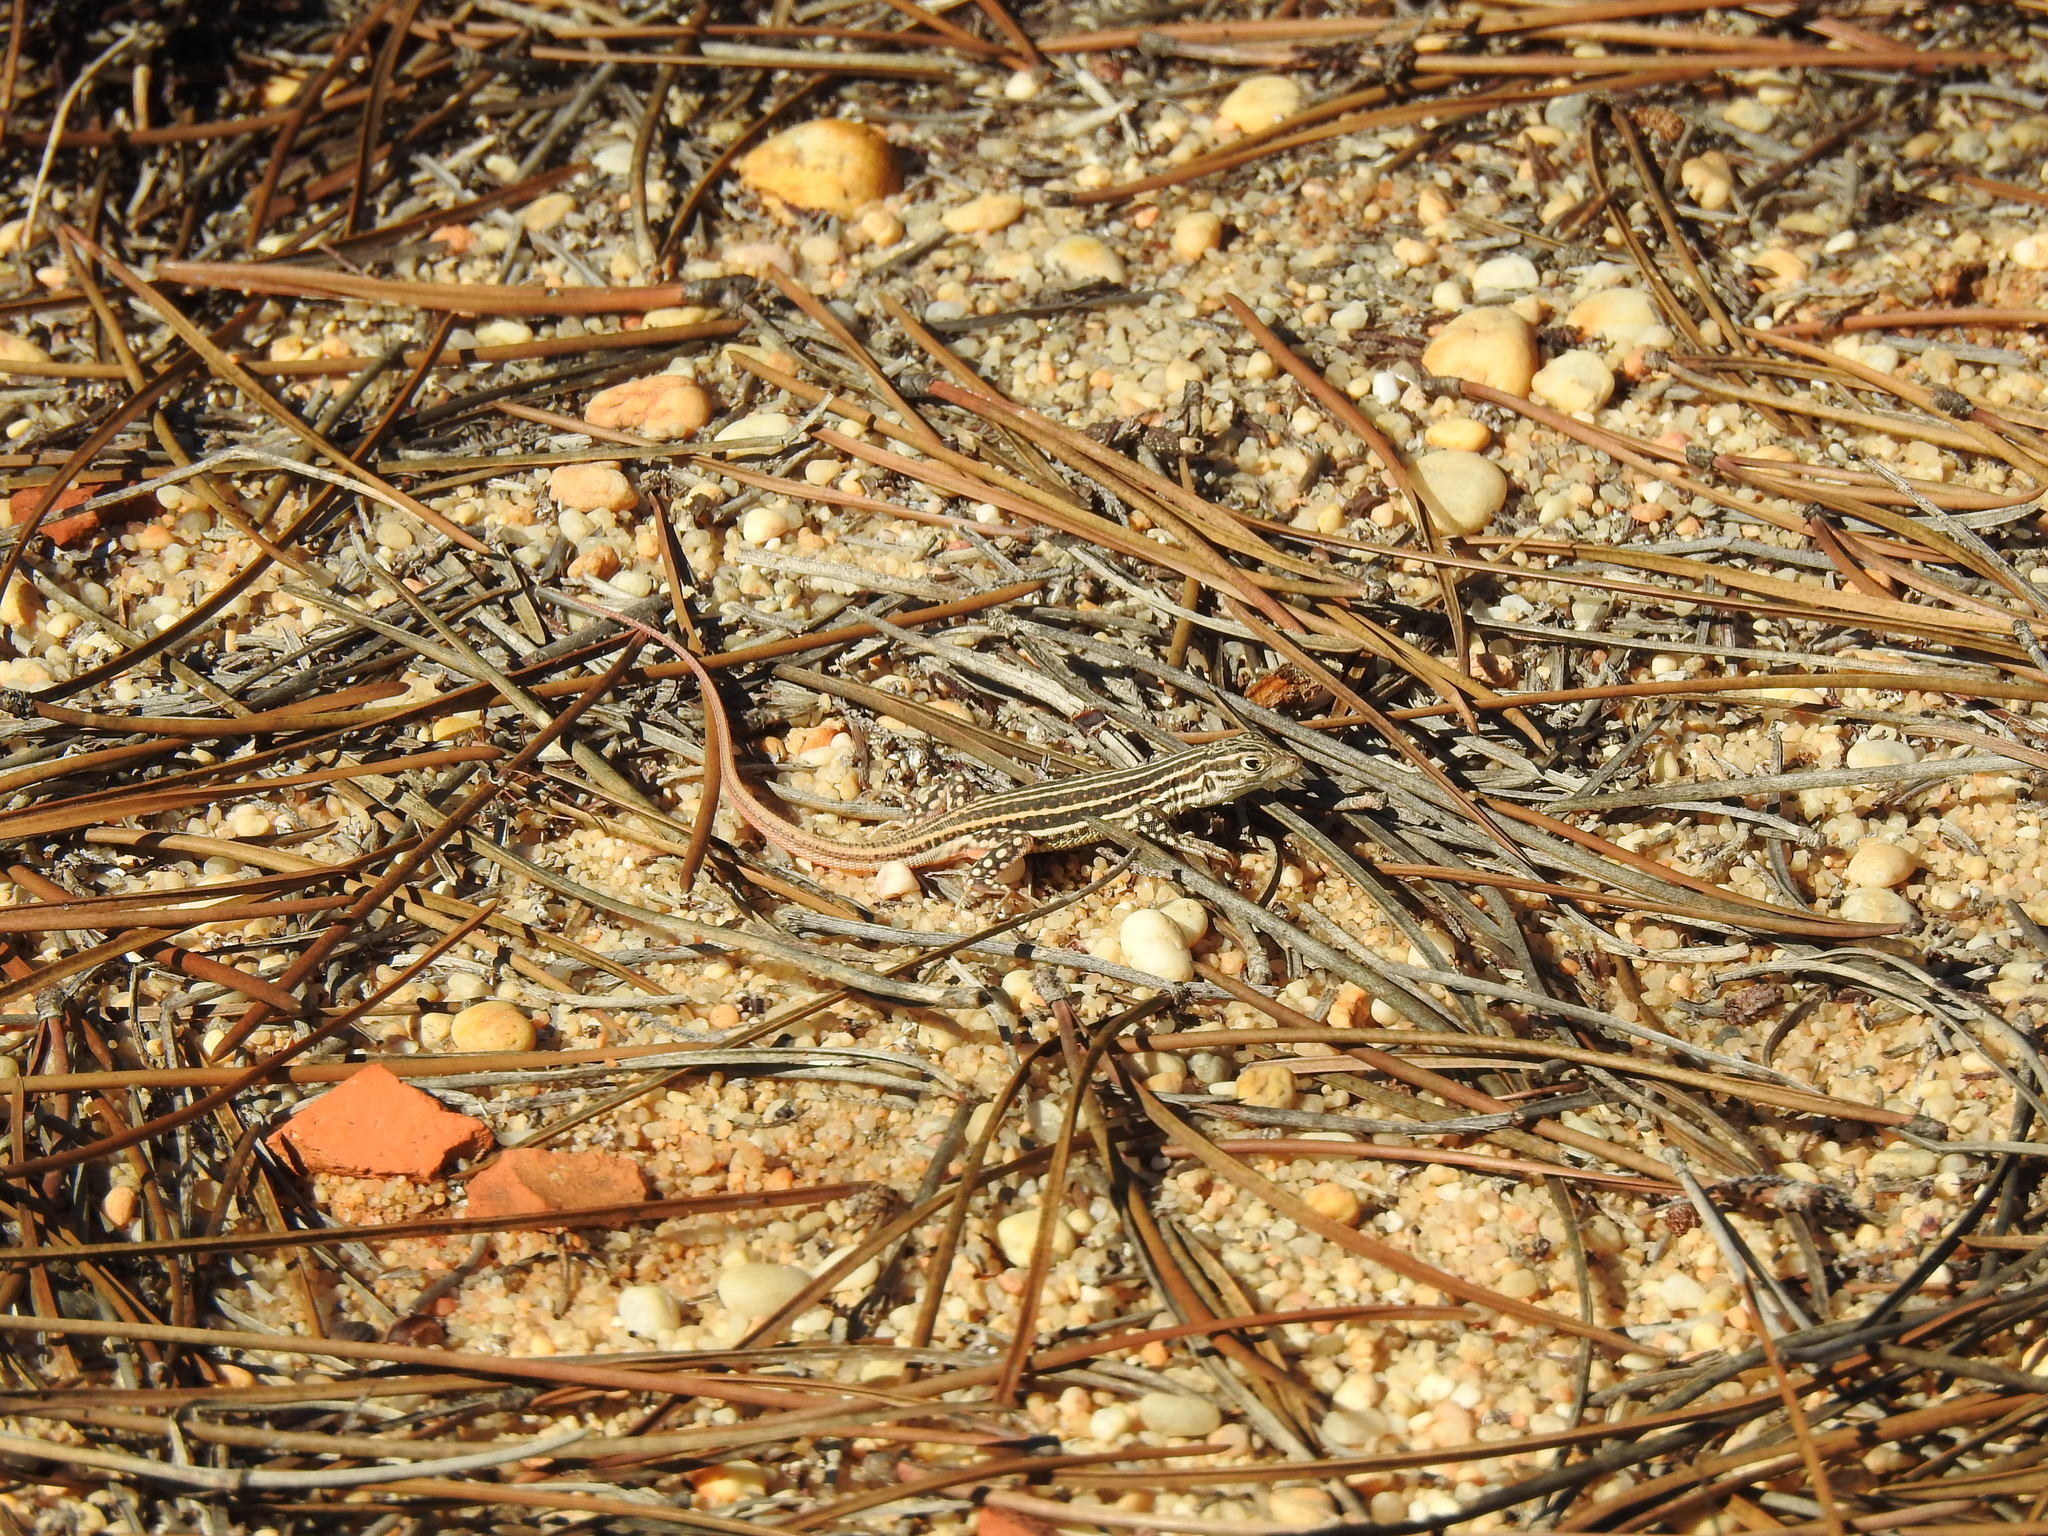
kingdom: Animalia
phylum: Chordata
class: Squamata
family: Lacertidae
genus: Acanthodactylus
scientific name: Acanthodactylus erythrurus
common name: Spiny-footed lizard
